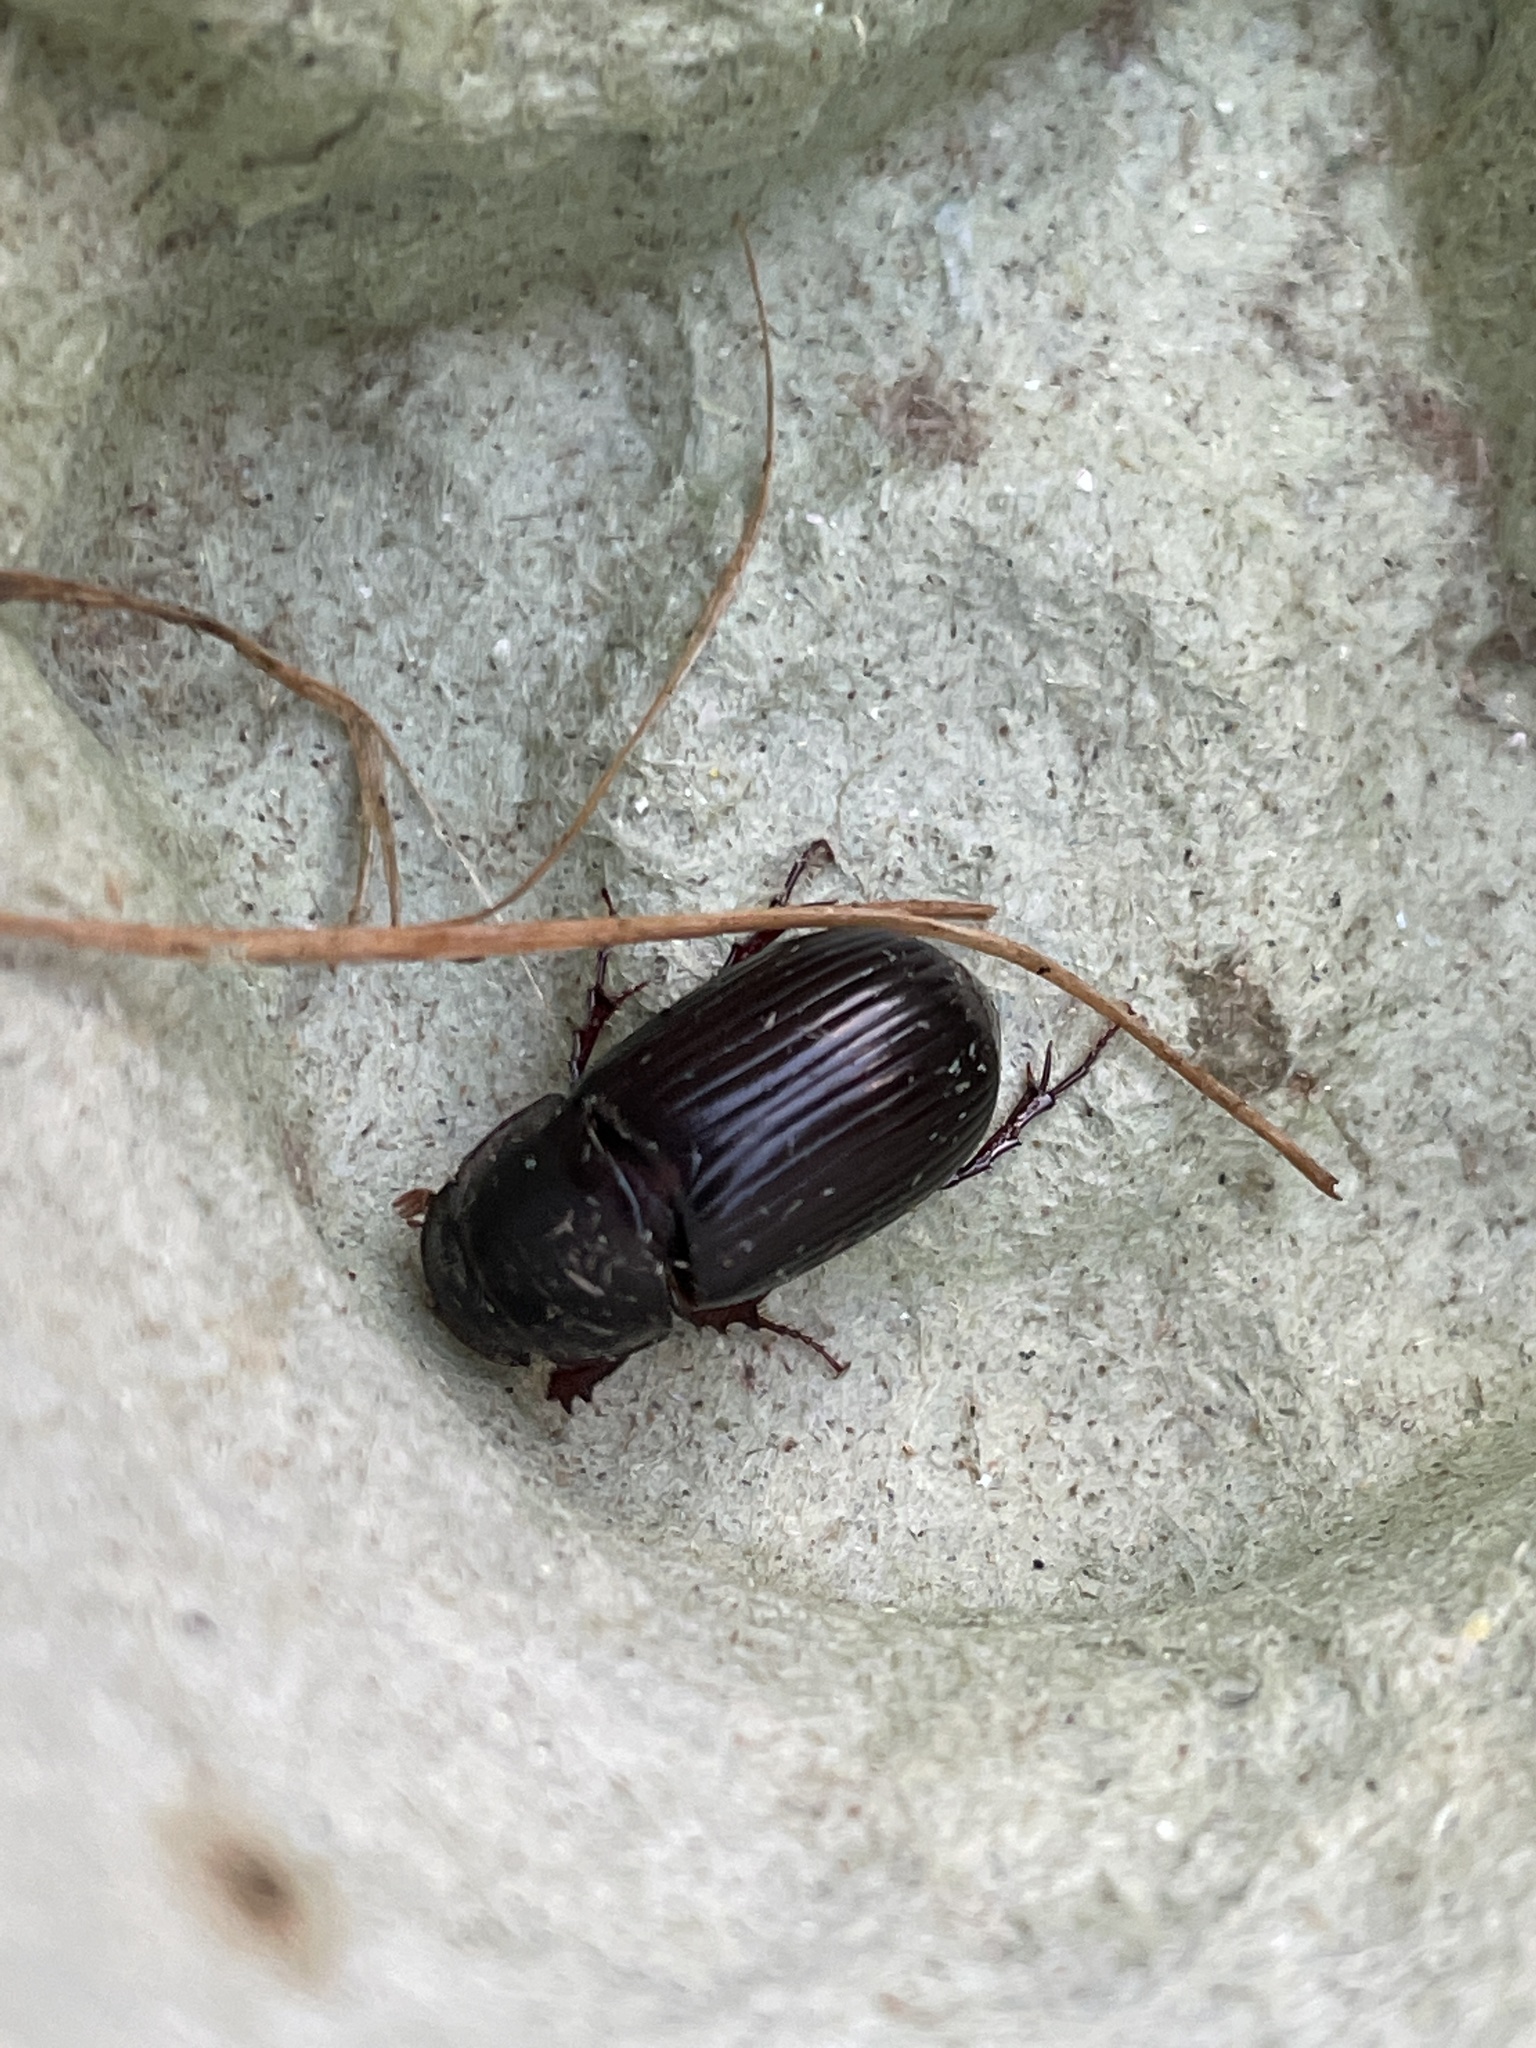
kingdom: Animalia
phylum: Arthropoda
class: Insecta
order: Coleoptera
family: Scarabaeidae
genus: Acrossus
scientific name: Acrossus rufipes
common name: Night-flying dung beetle
